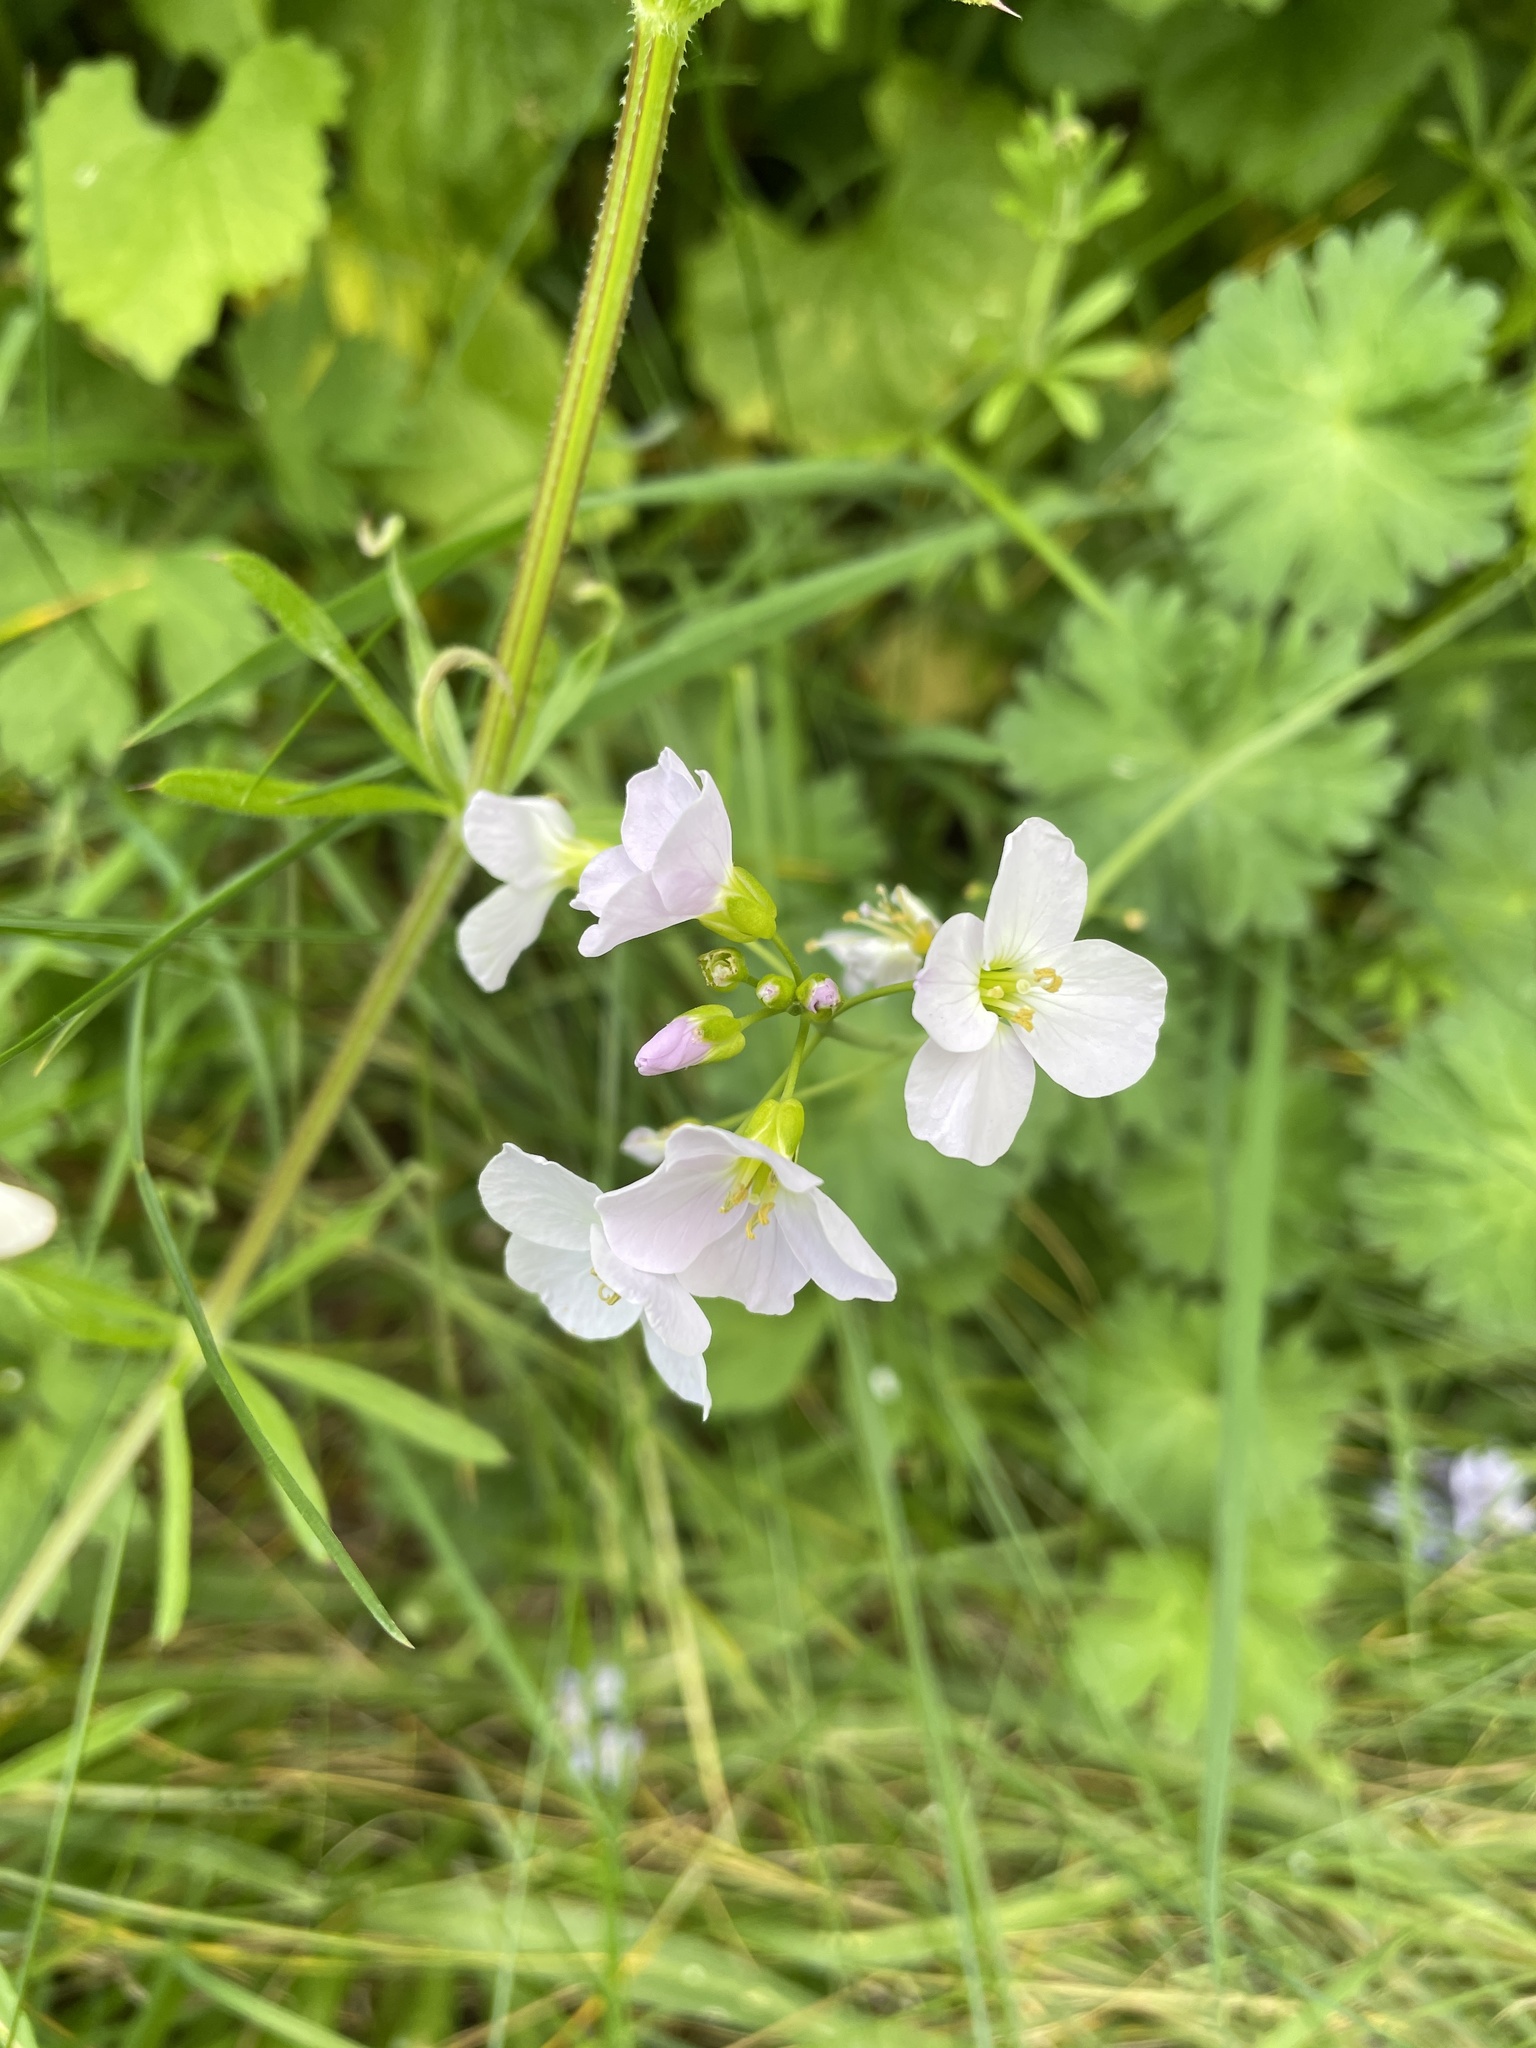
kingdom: Plantae
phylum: Tracheophyta
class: Magnoliopsida
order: Brassicales
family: Brassicaceae
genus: Cardamine
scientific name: Cardamine pratensis
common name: Cuckoo flower
